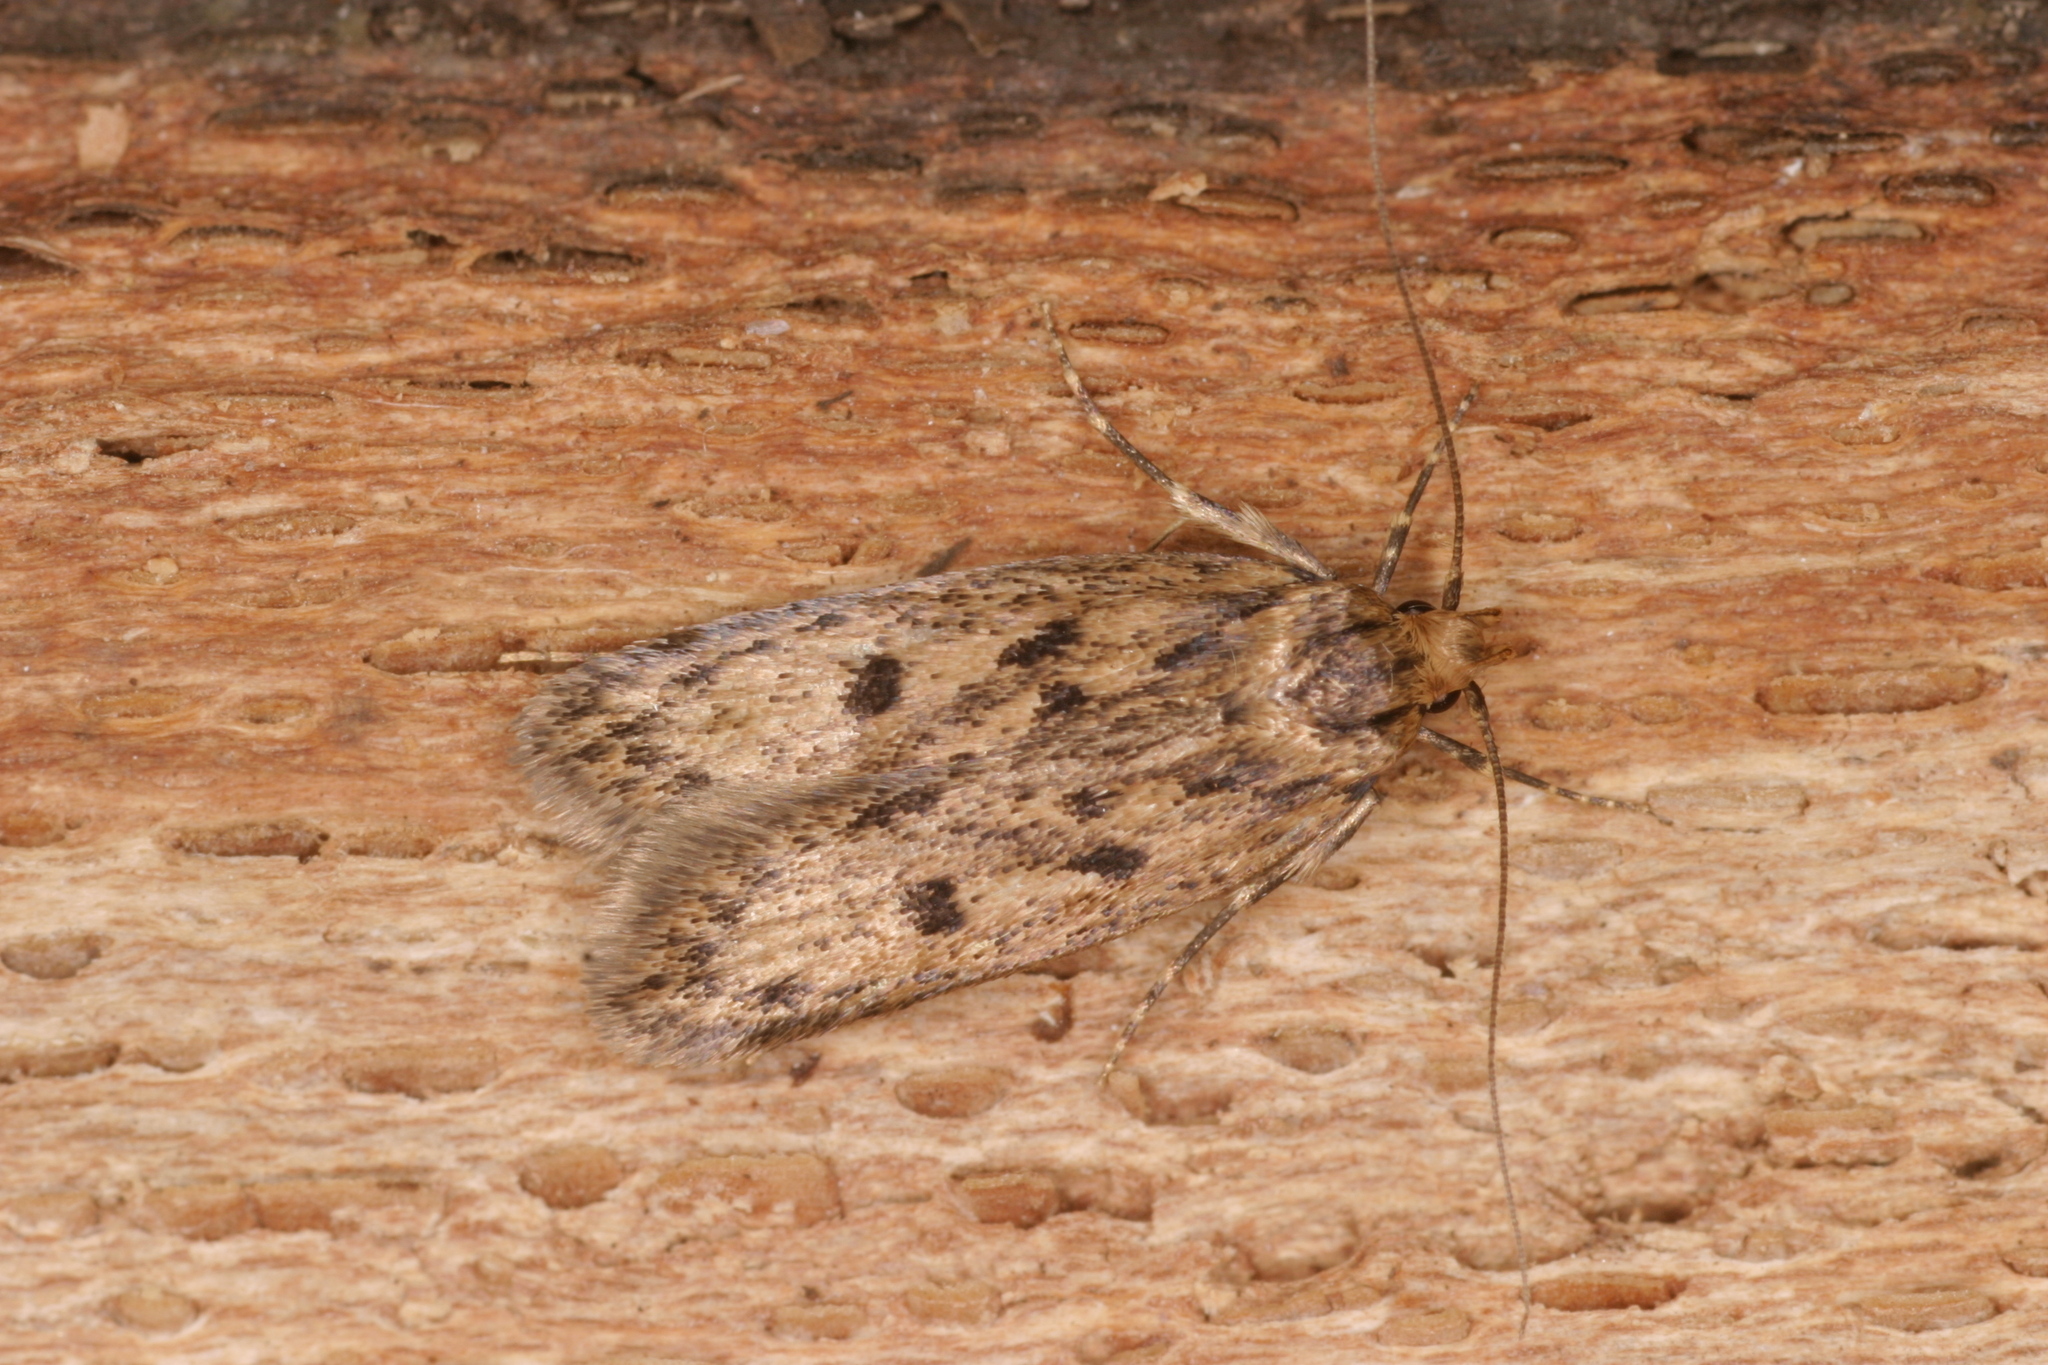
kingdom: Animalia
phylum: Arthropoda
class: Insecta
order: Lepidoptera
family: Oecophoridae
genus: Hofmannophila
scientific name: Hofmannophila pseudospretella
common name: Brown house moth
